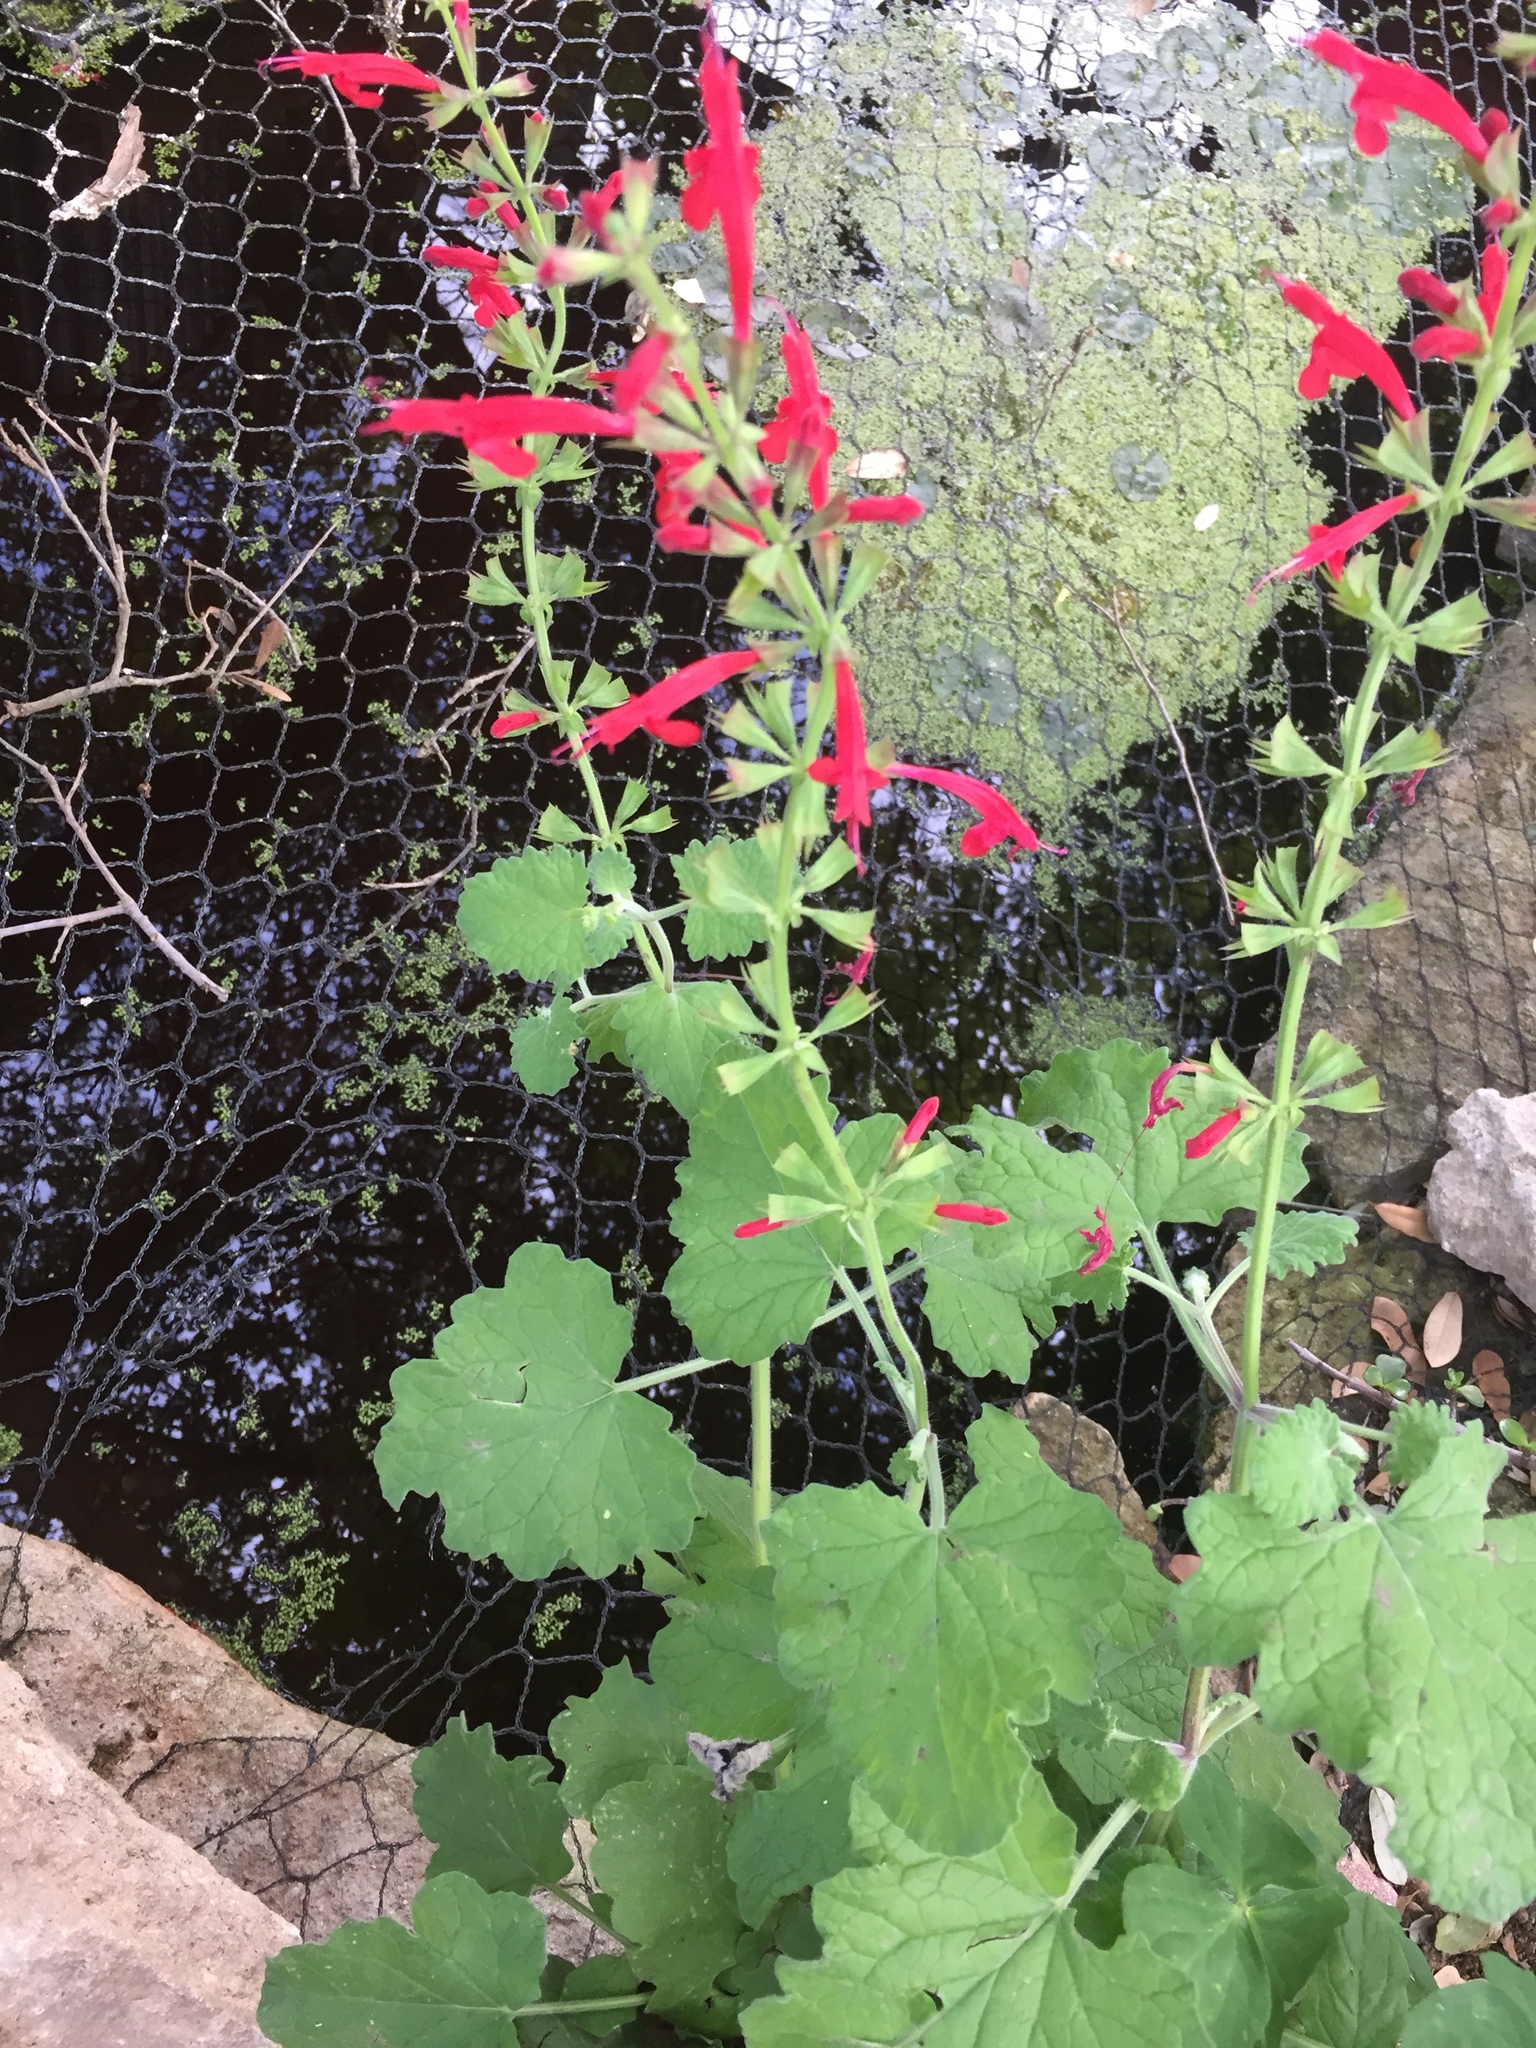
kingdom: Plantae
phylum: Tracheophyta
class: Magnoliopsida
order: Lamiales
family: Lamiaceae
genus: Salvia
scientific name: Salvia roemeriana
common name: Cedar sage
